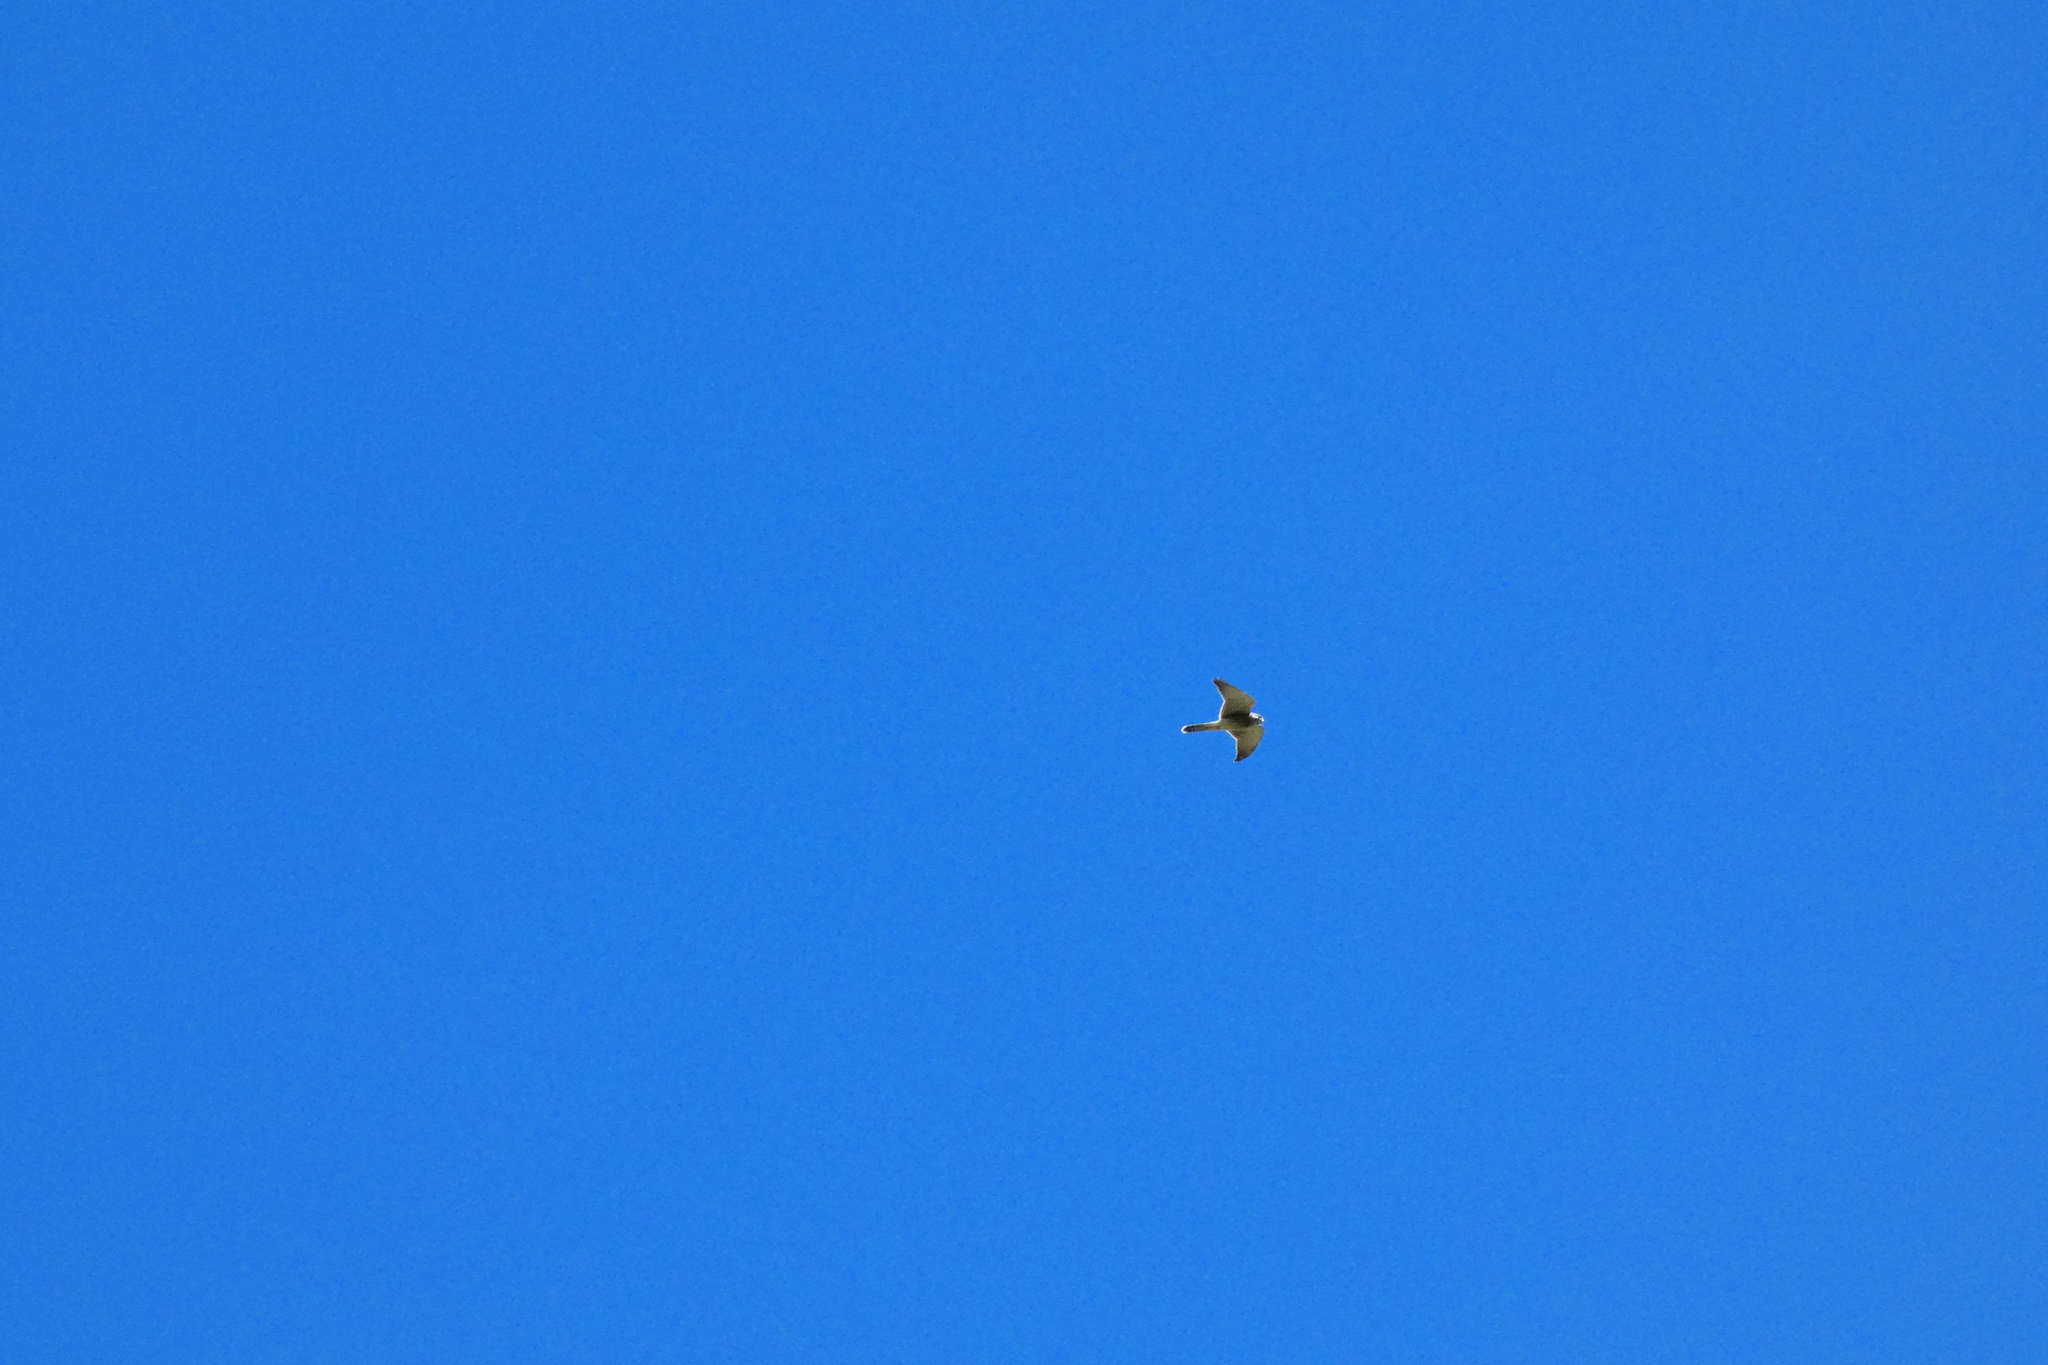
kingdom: Animalia
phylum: Chordata
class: Aves
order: Falconiformes
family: Falconidae
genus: Falco
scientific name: Falco tinnunculus
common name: Common kestrel
